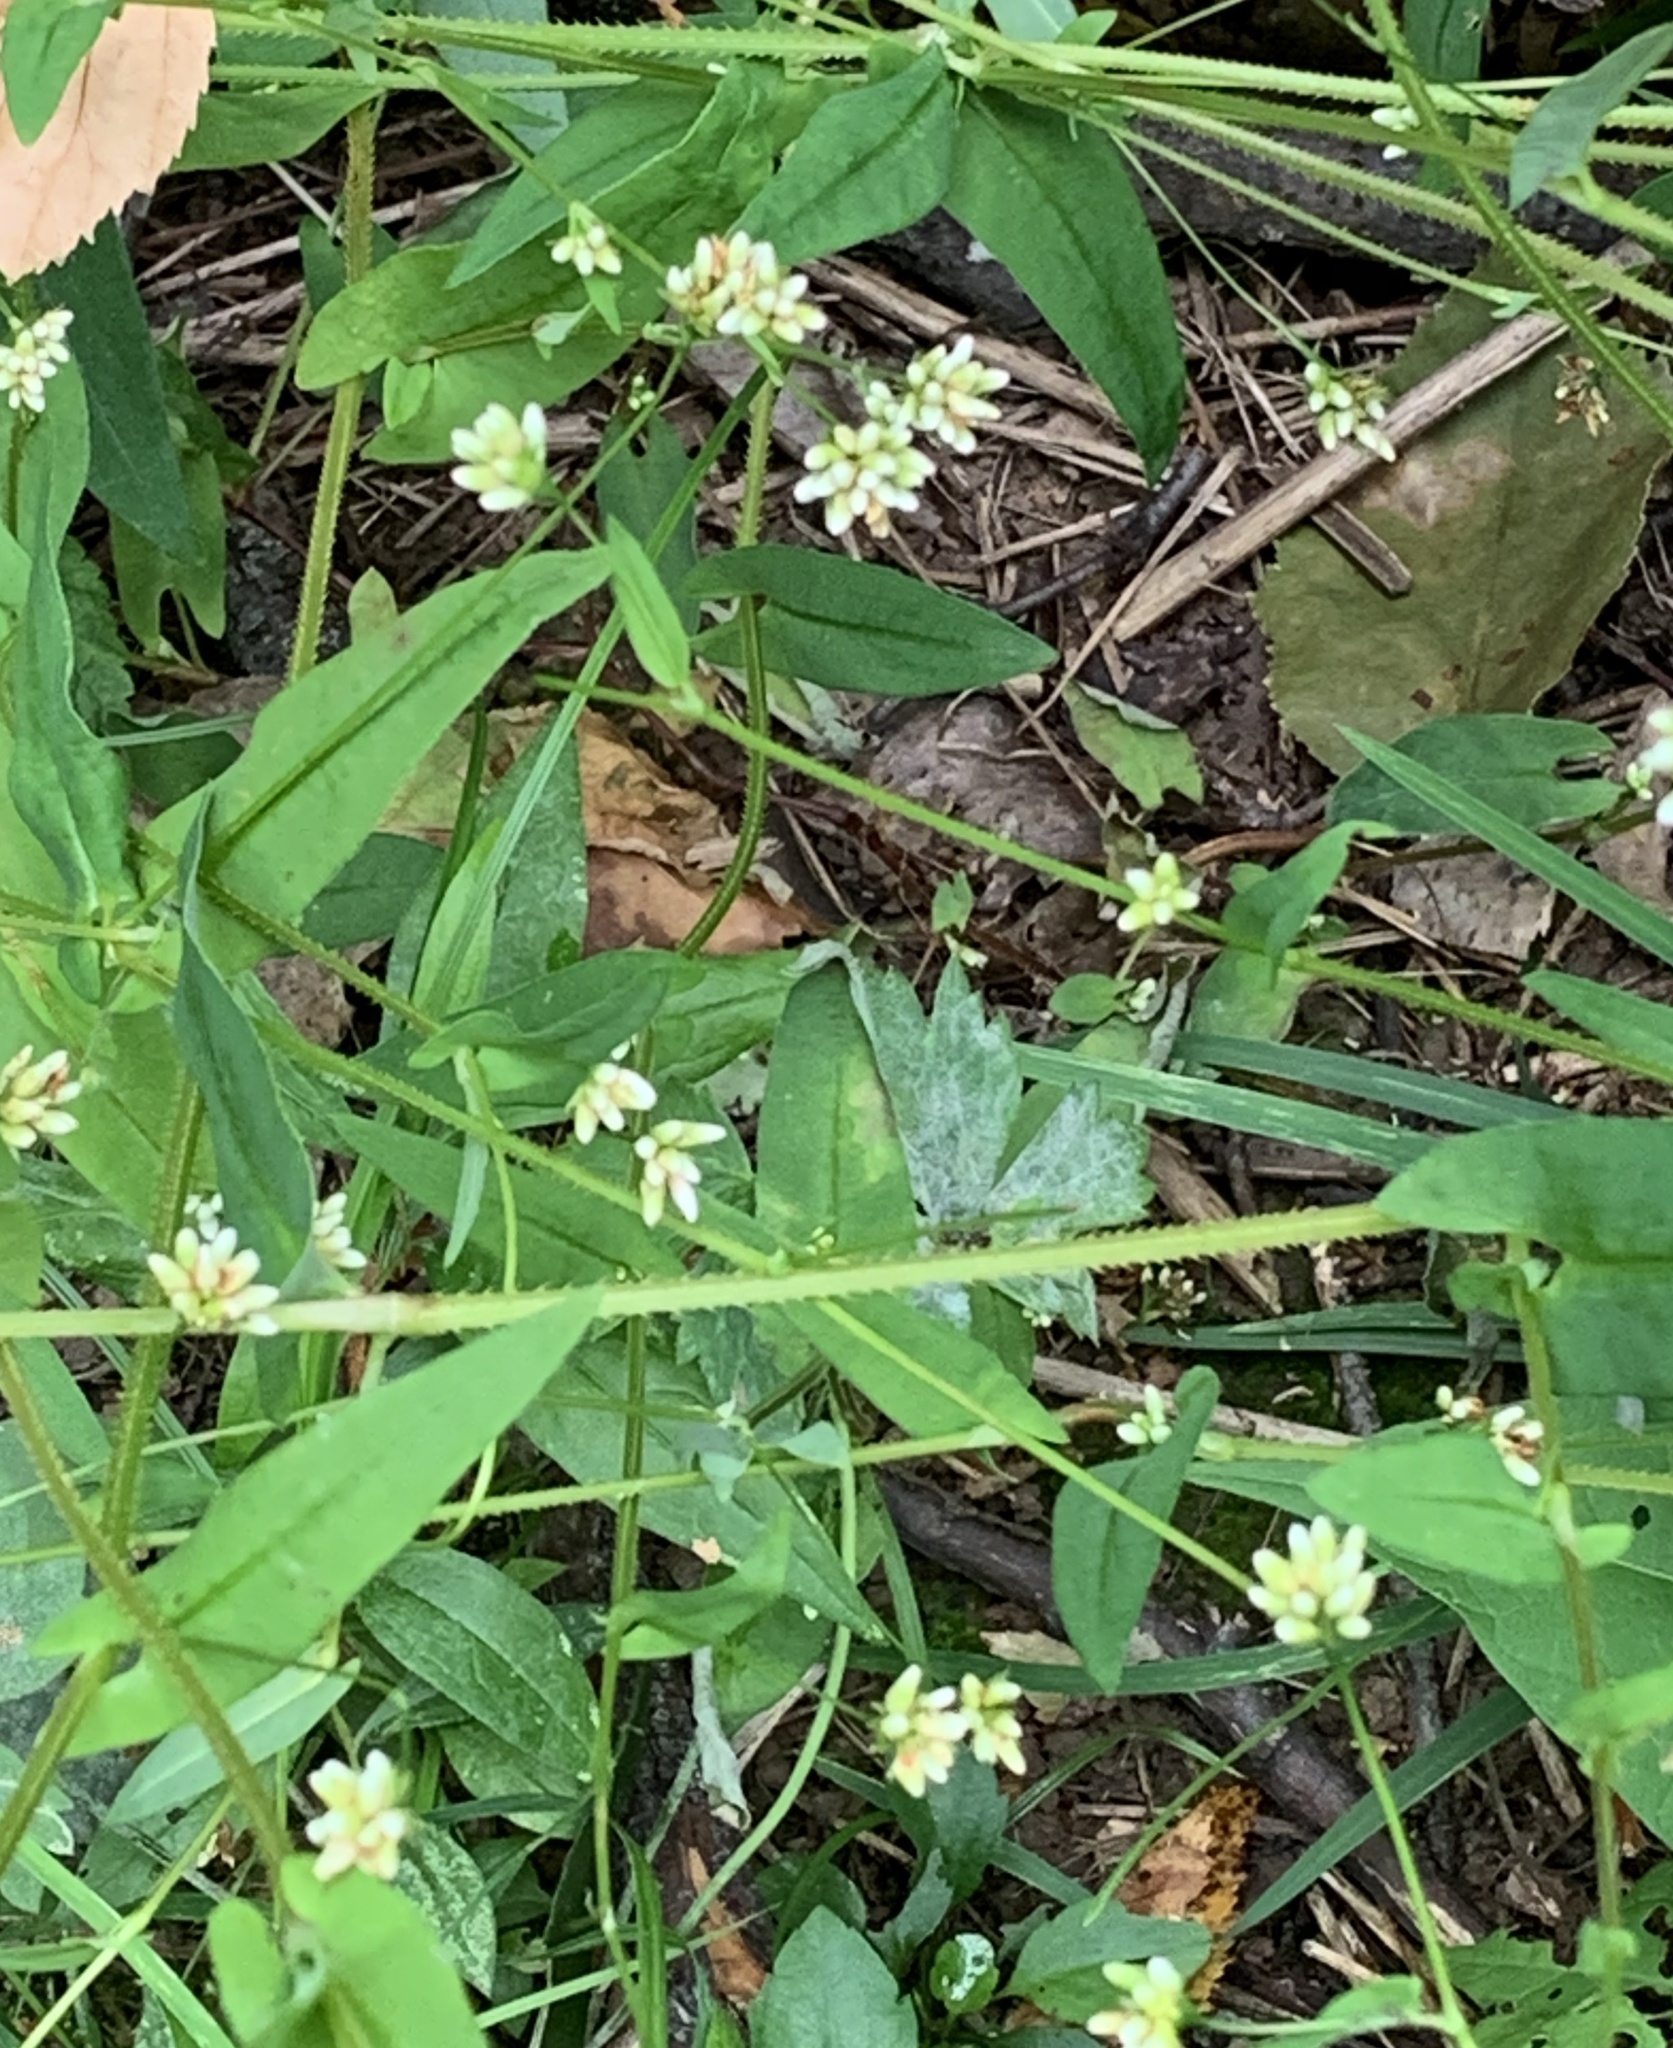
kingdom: Plantae
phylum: Tracheophyta
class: Magnoliopsida
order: Caryophyllales
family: Polygonaceae
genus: Persicaria
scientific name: Persicaria sagittata
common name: American tearthumb
